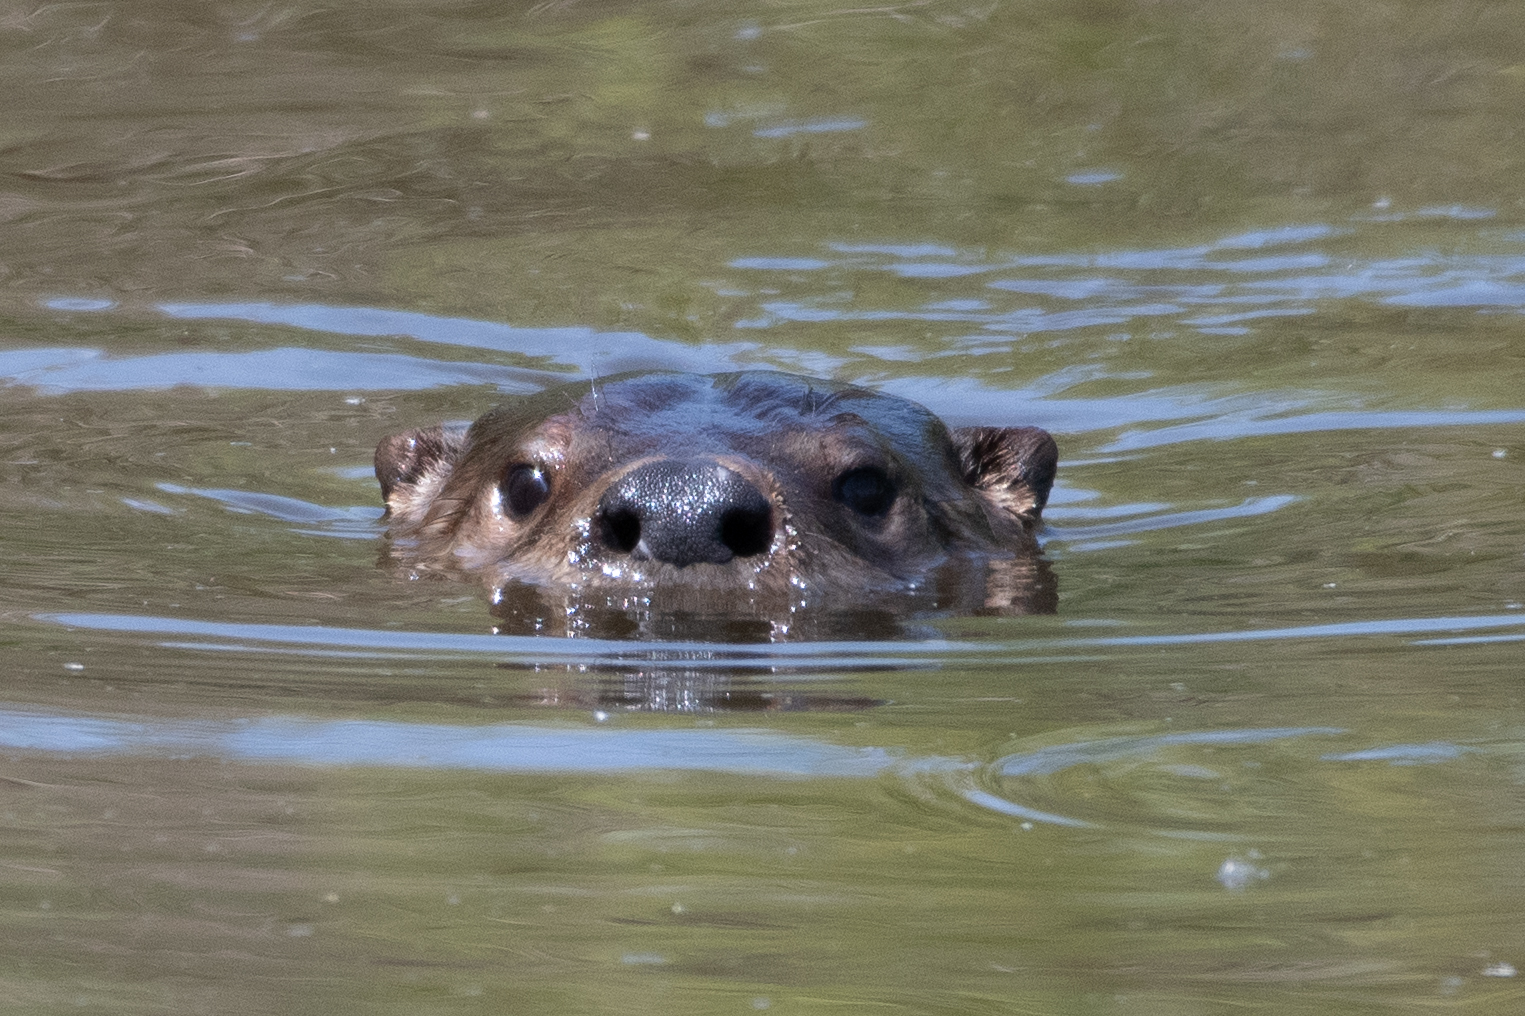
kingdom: Animalia
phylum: Chordata
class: Mammalia
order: Carnivora
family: Mustelidae
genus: Lontra
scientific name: Lontra canadensis
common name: North american river otter
